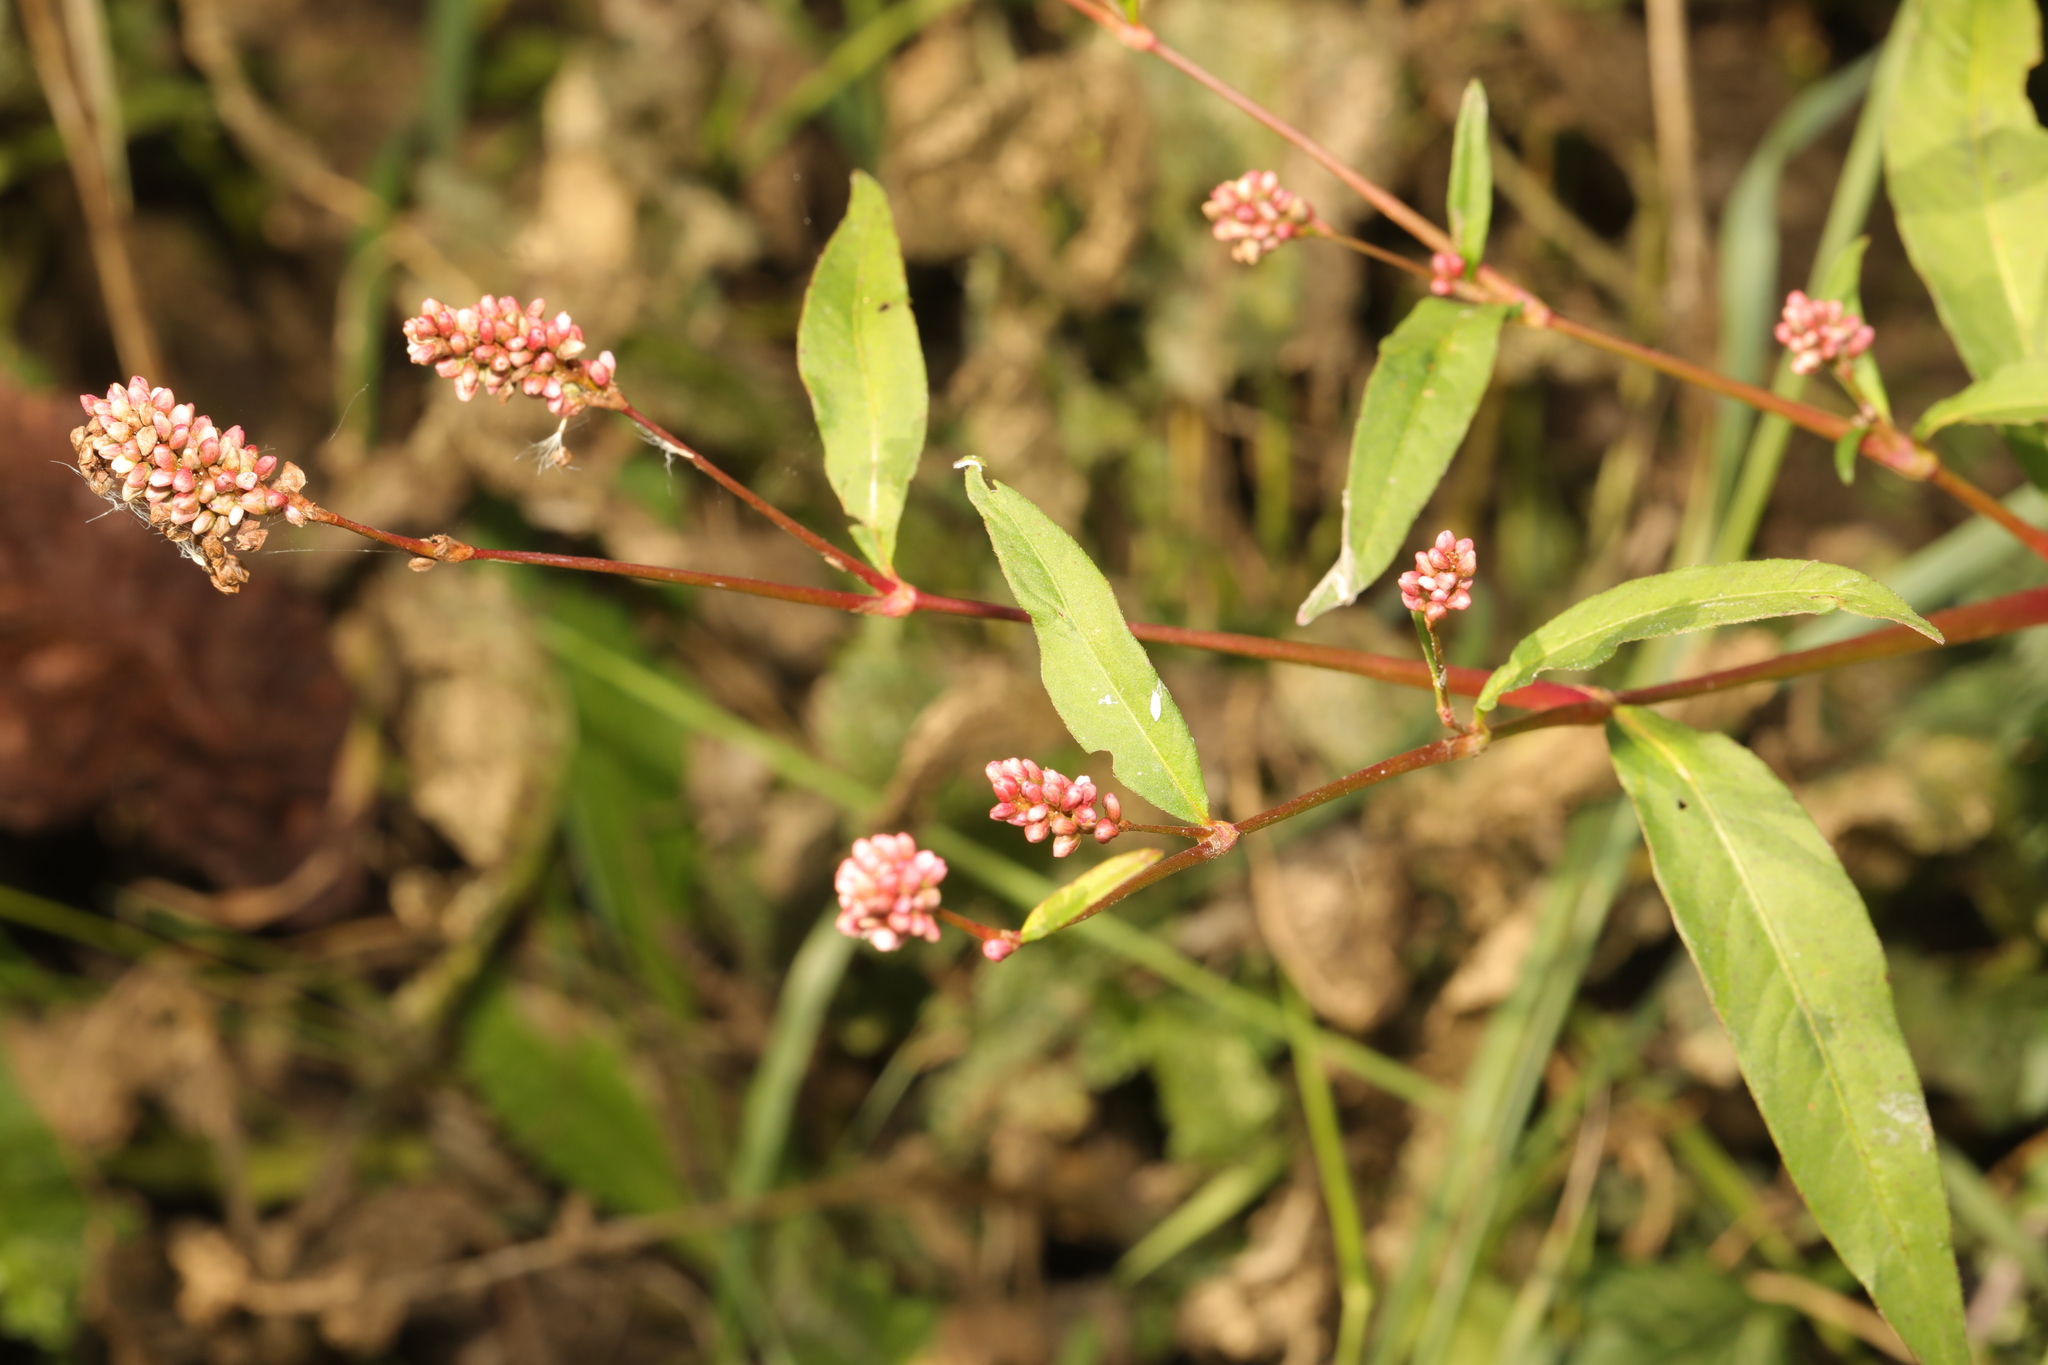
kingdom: Plantae
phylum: Tracheophyta
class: Magnoliopsida
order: Caryophyllales
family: Polygonaceae
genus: Persicaria
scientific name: Persicaria maculosa
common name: Redshank
